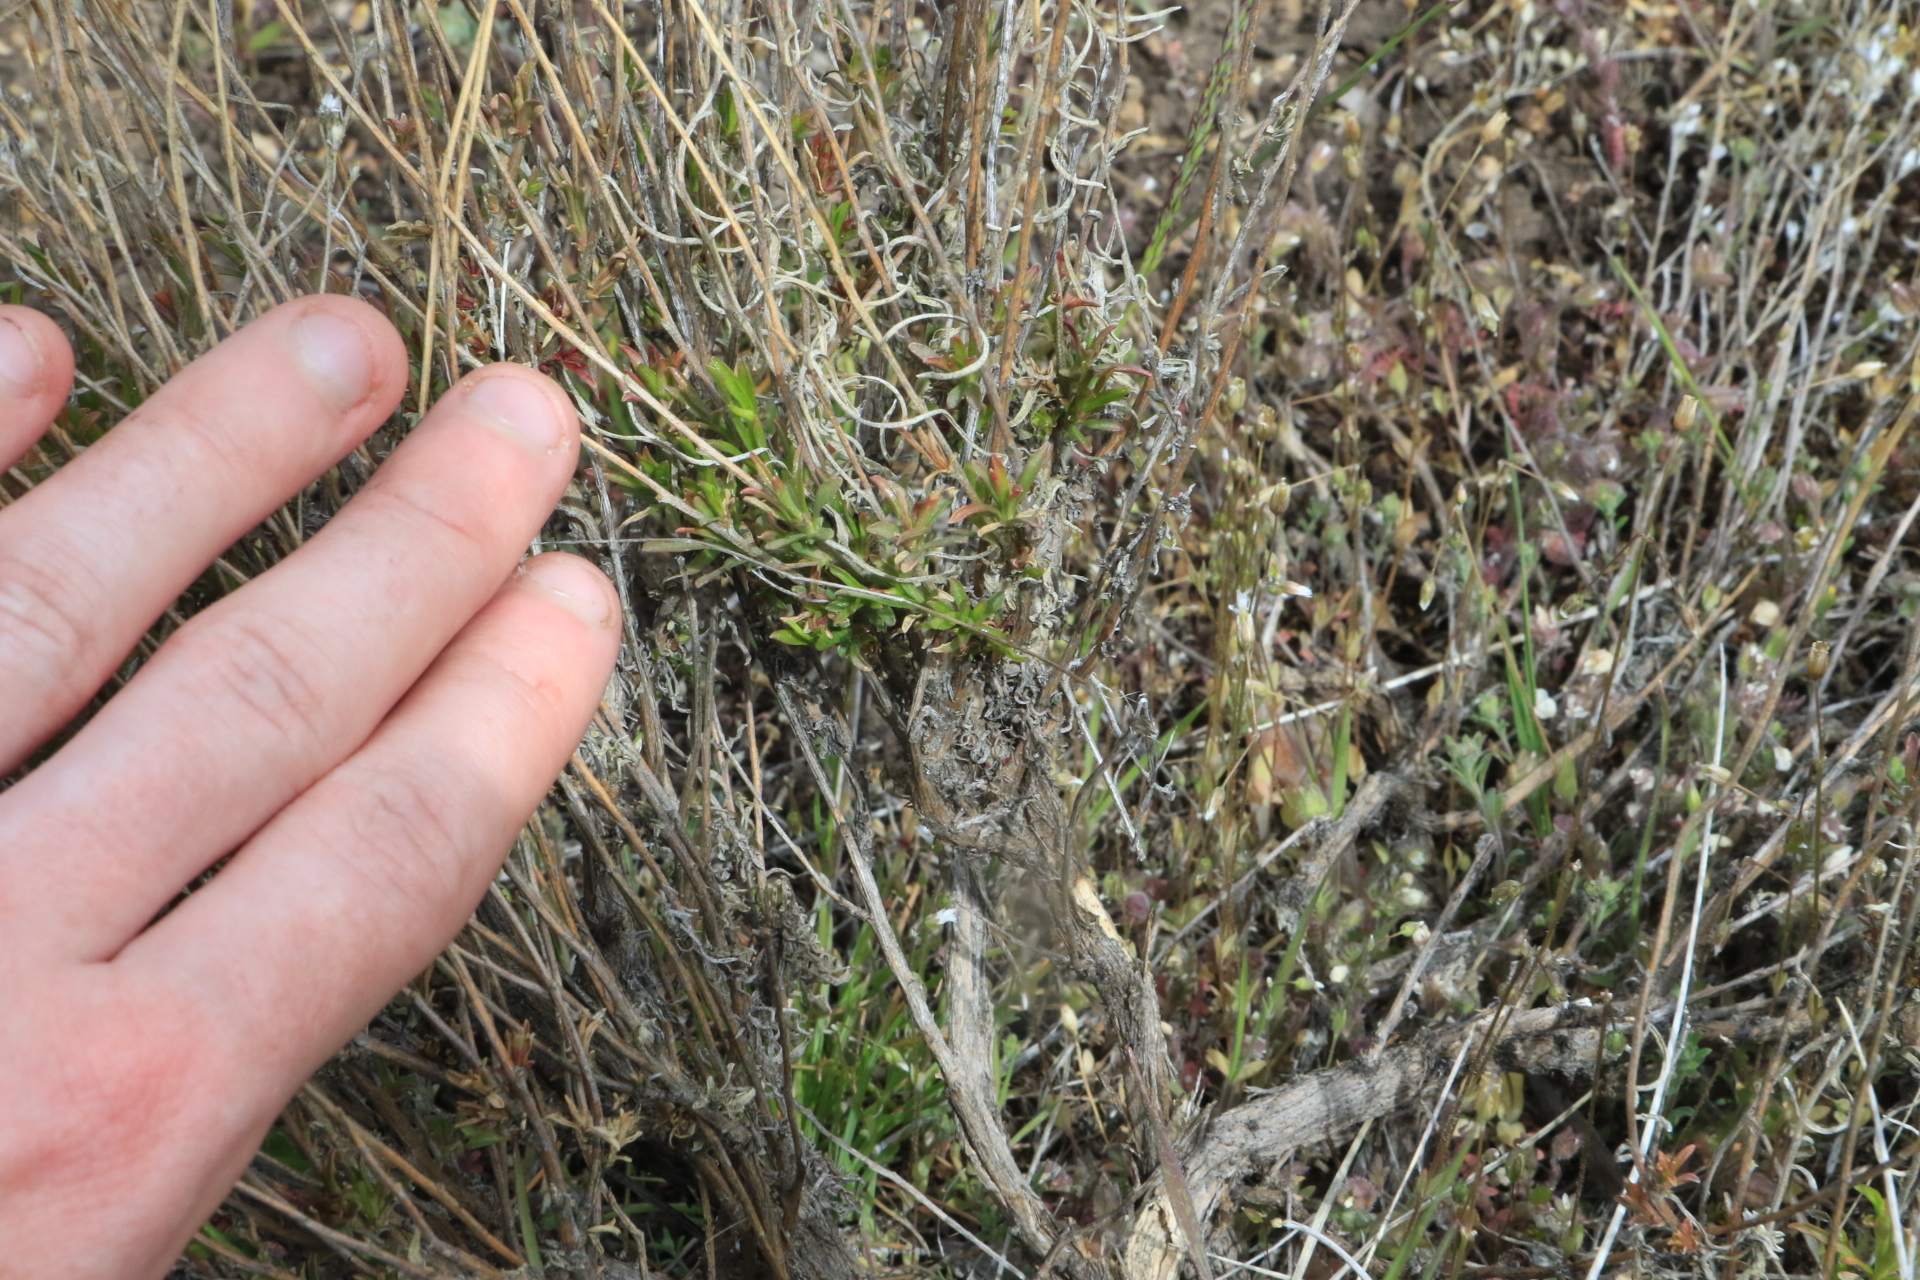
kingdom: Plantae
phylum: Tracheophyta
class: Magnoliopsida
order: Asterales
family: Asteraceae
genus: Gutierrezia
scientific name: Gutierrezia sarothrae
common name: Broom snakeweed
